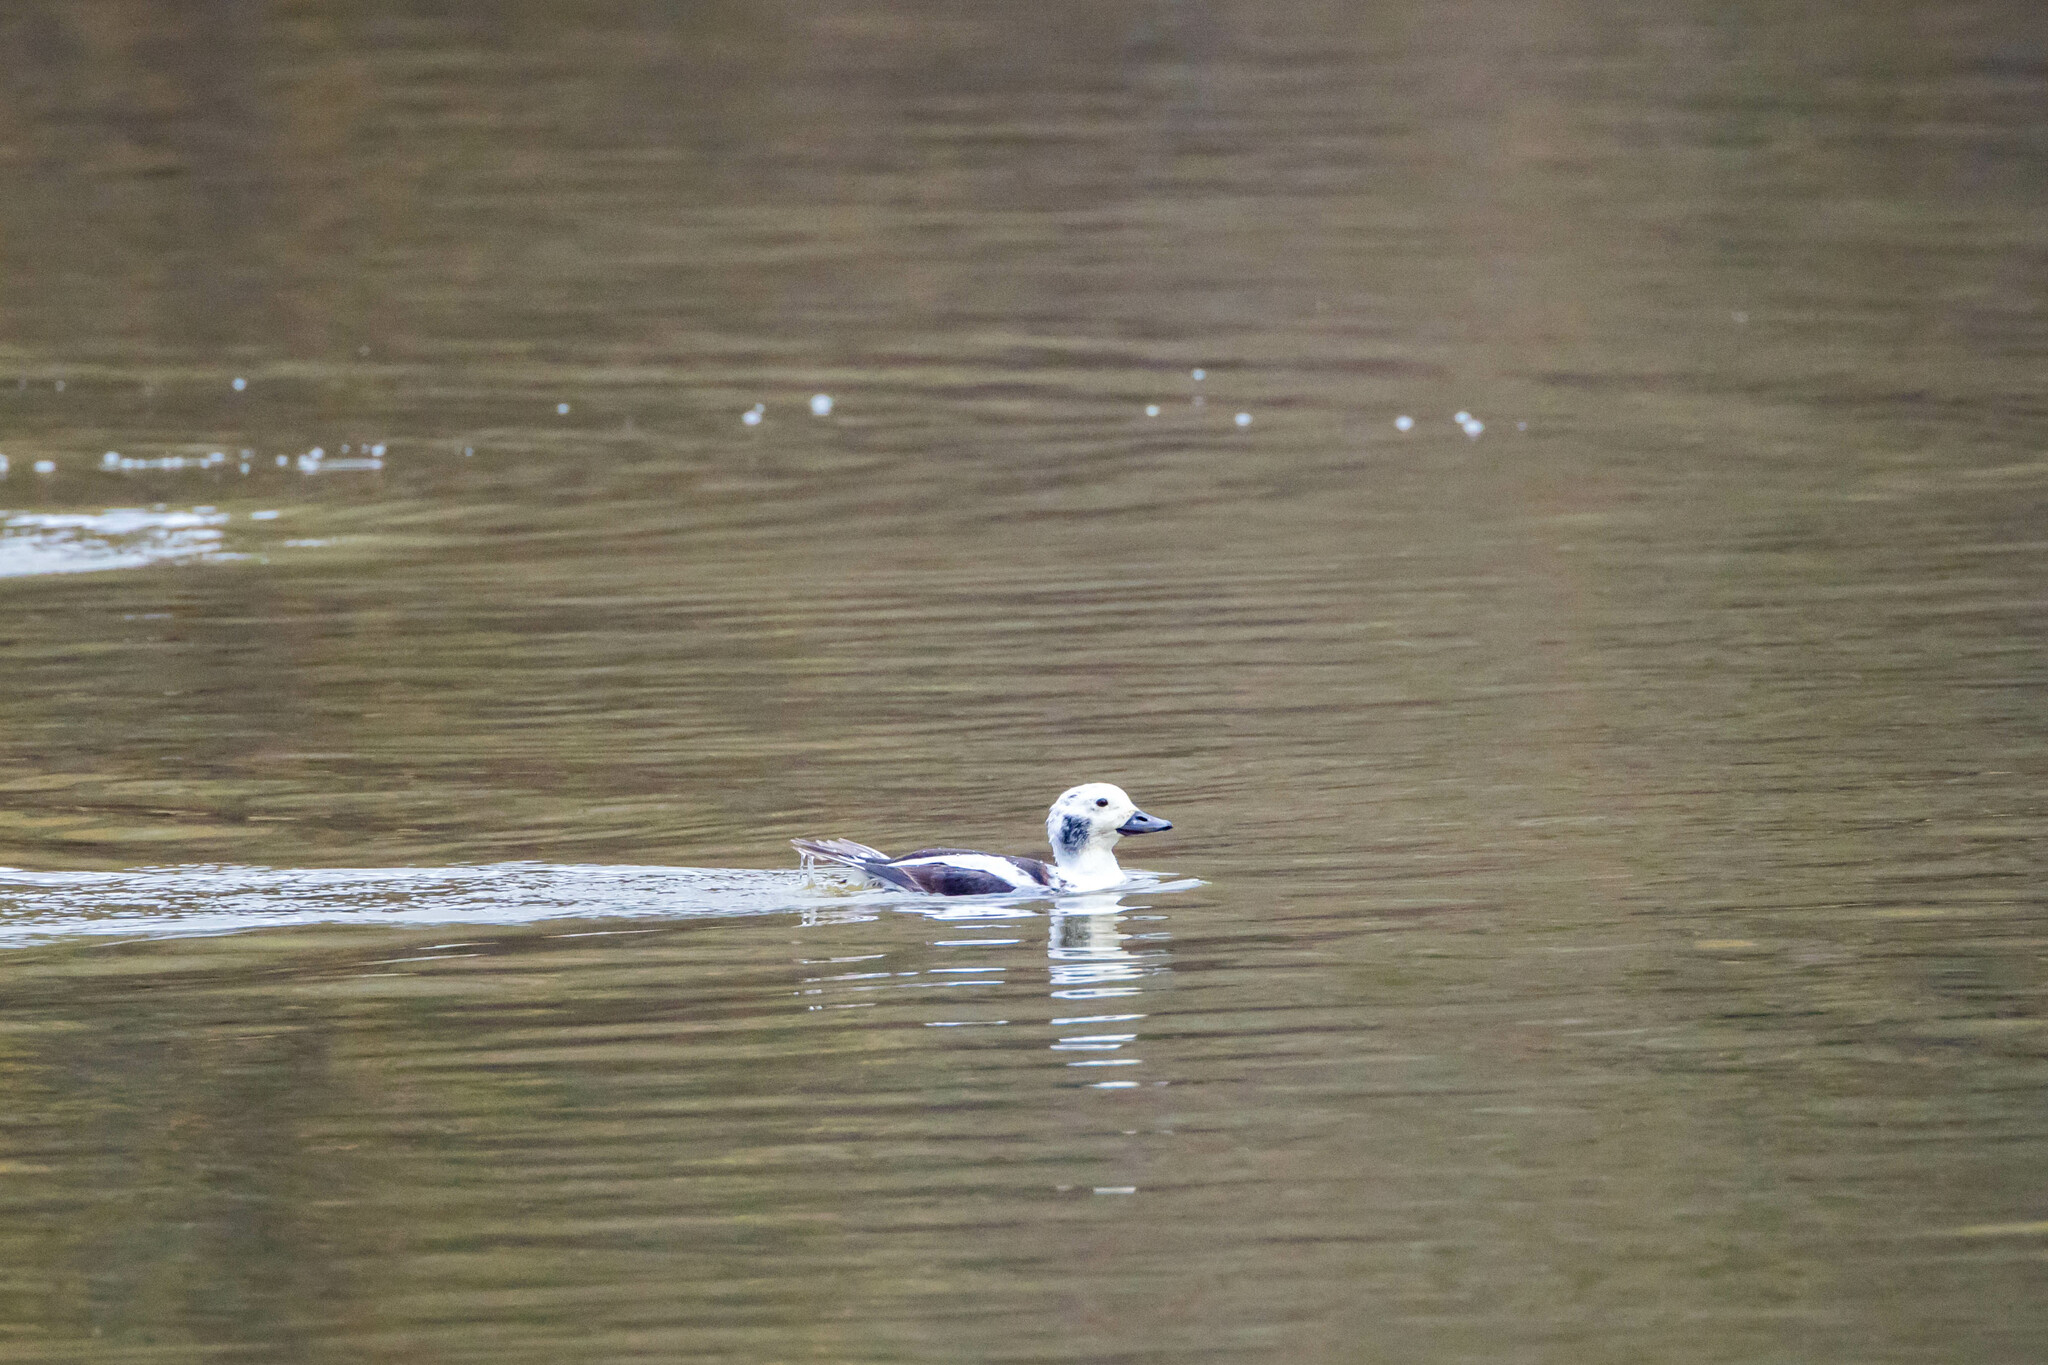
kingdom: Animalia
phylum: Chordata
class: Aves
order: Anseriformes
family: Anatidae
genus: Clangula
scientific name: Clangula hyemalis
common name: Long-tailed duck
